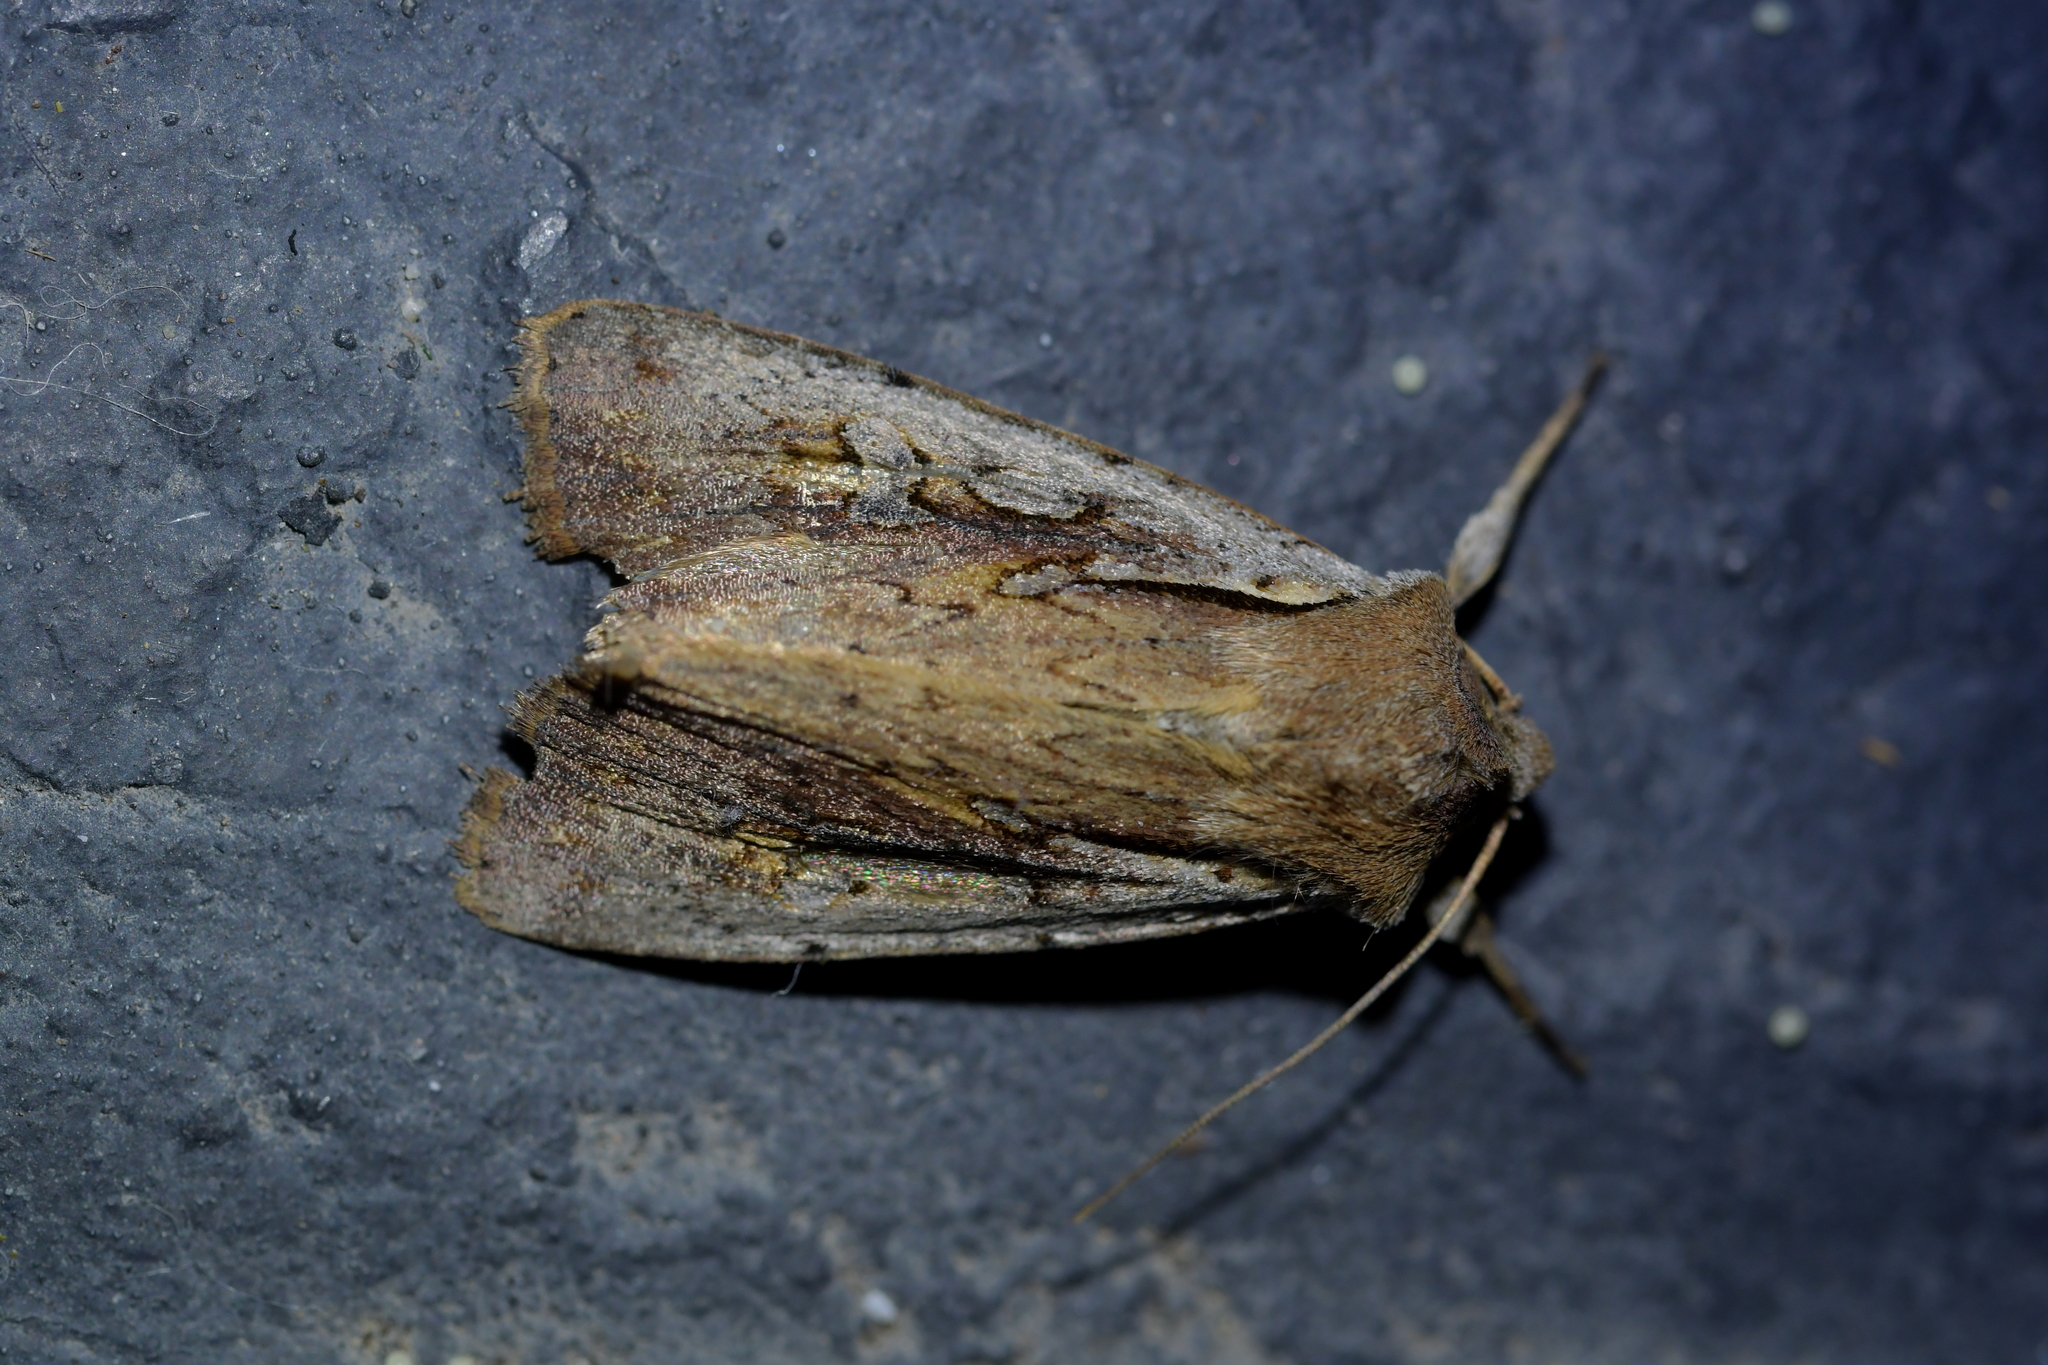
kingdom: Animalia
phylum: Arthropoda
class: Insecta
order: Lepidoptera
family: Noctuidae
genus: Ichneutica
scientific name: Ichneutica atristriga
